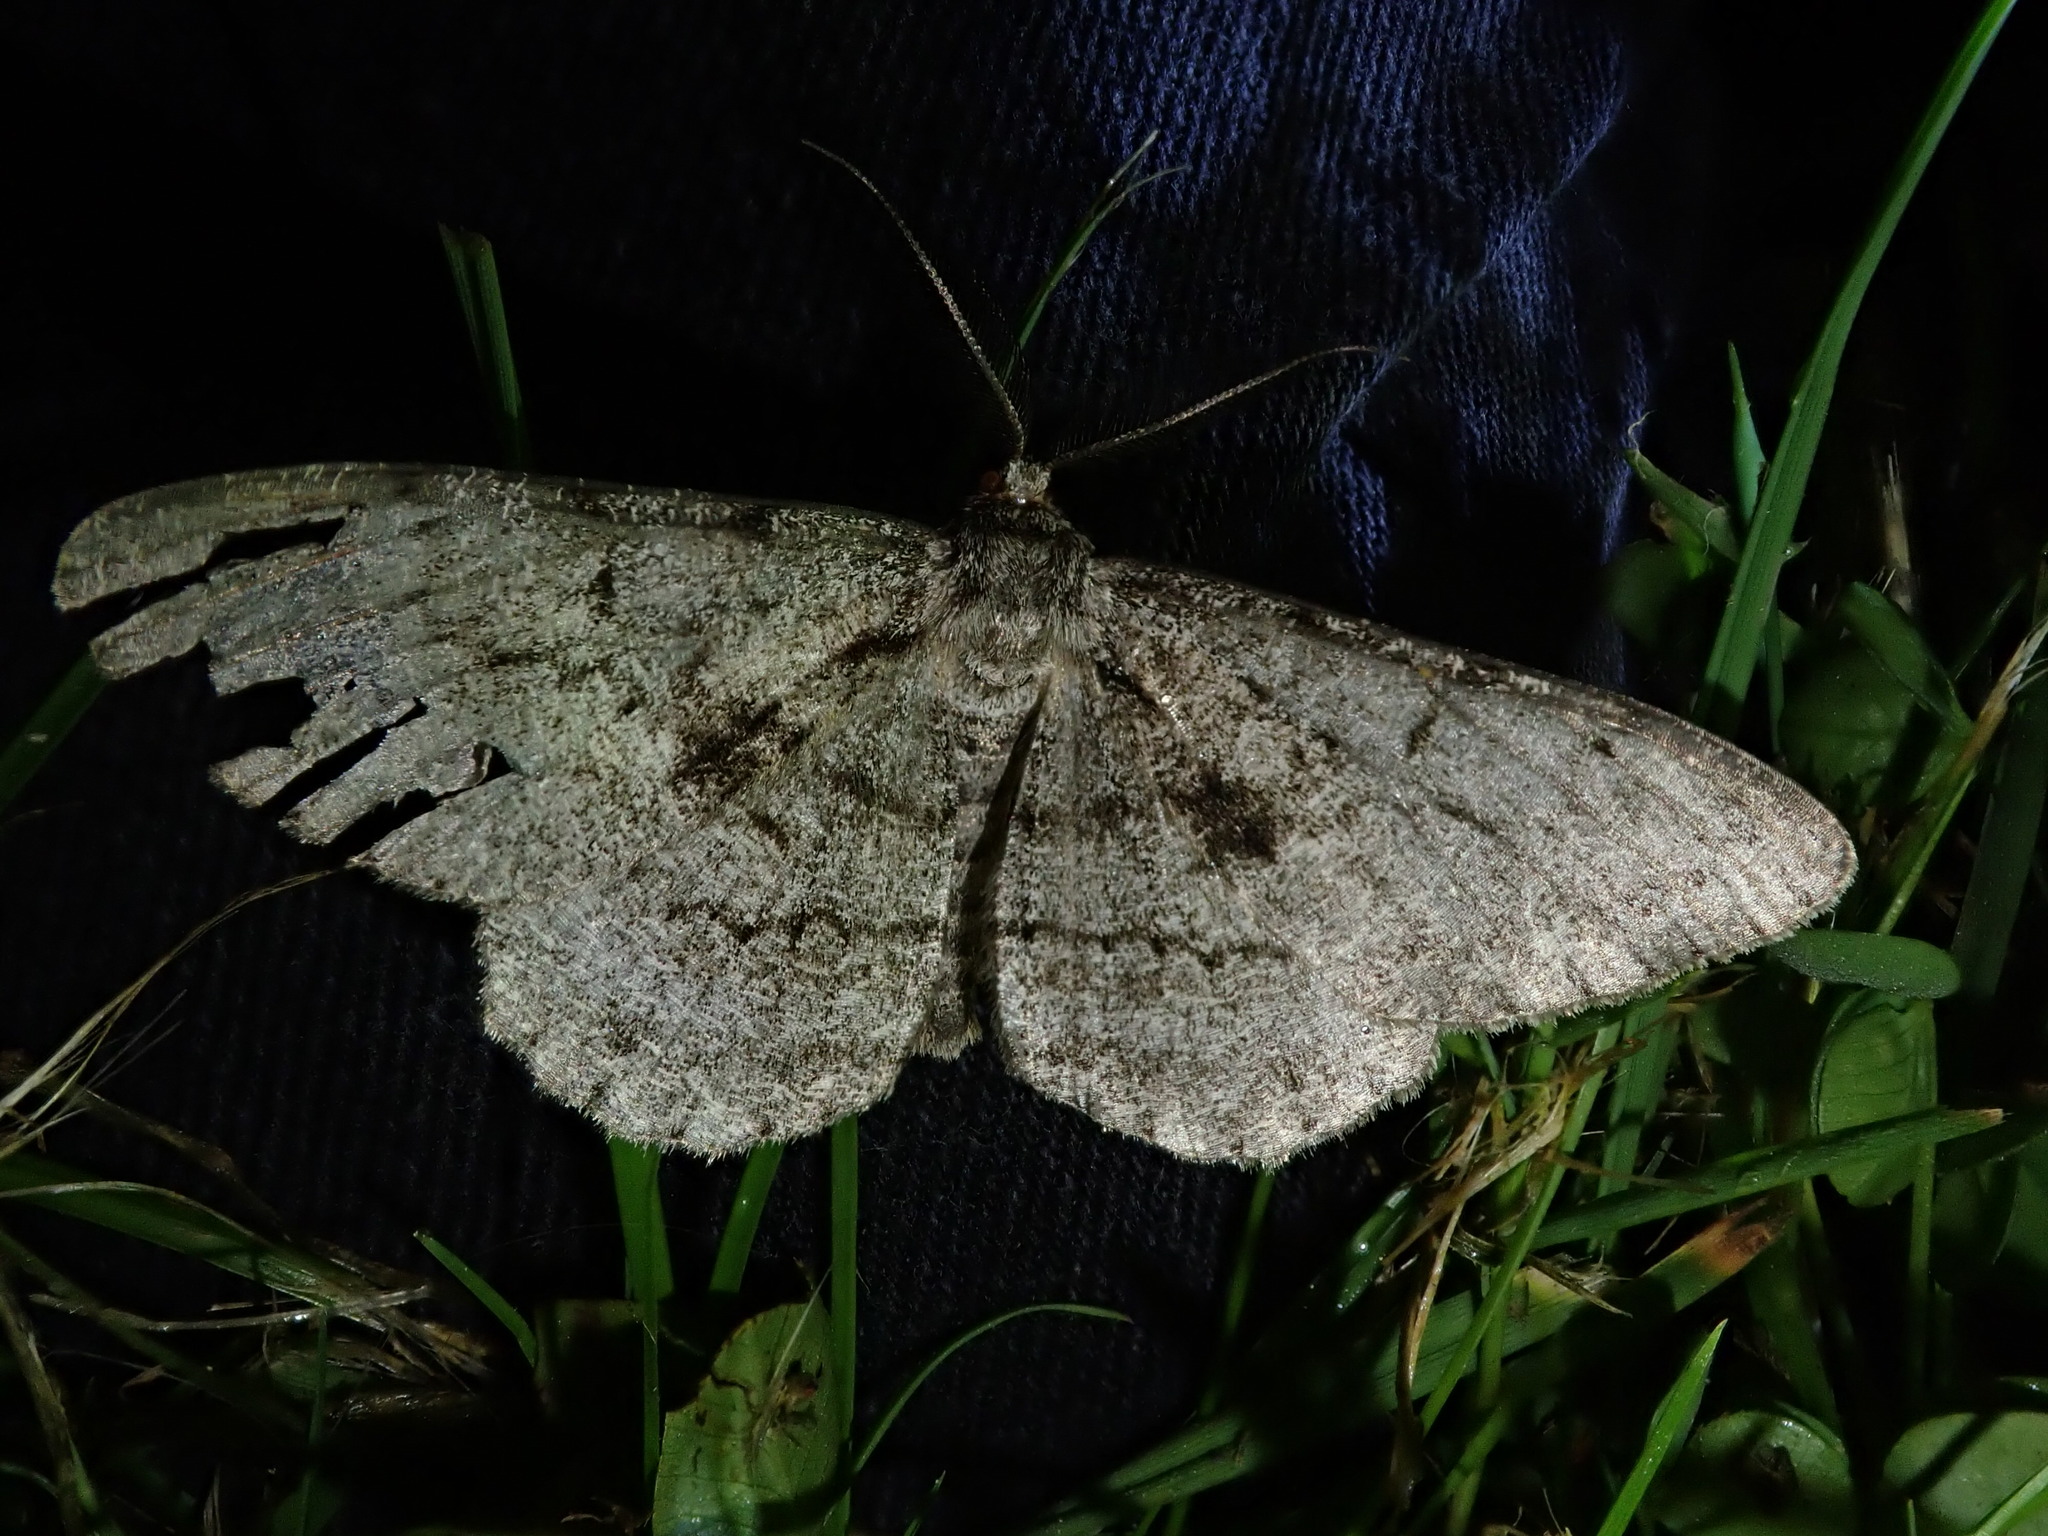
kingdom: Animalia
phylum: Arthropoda
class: Insecta
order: Lepidoptera
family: Geometridae
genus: Peribatodes
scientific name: Peribatodes rhomboidaria
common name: Willow beauty
